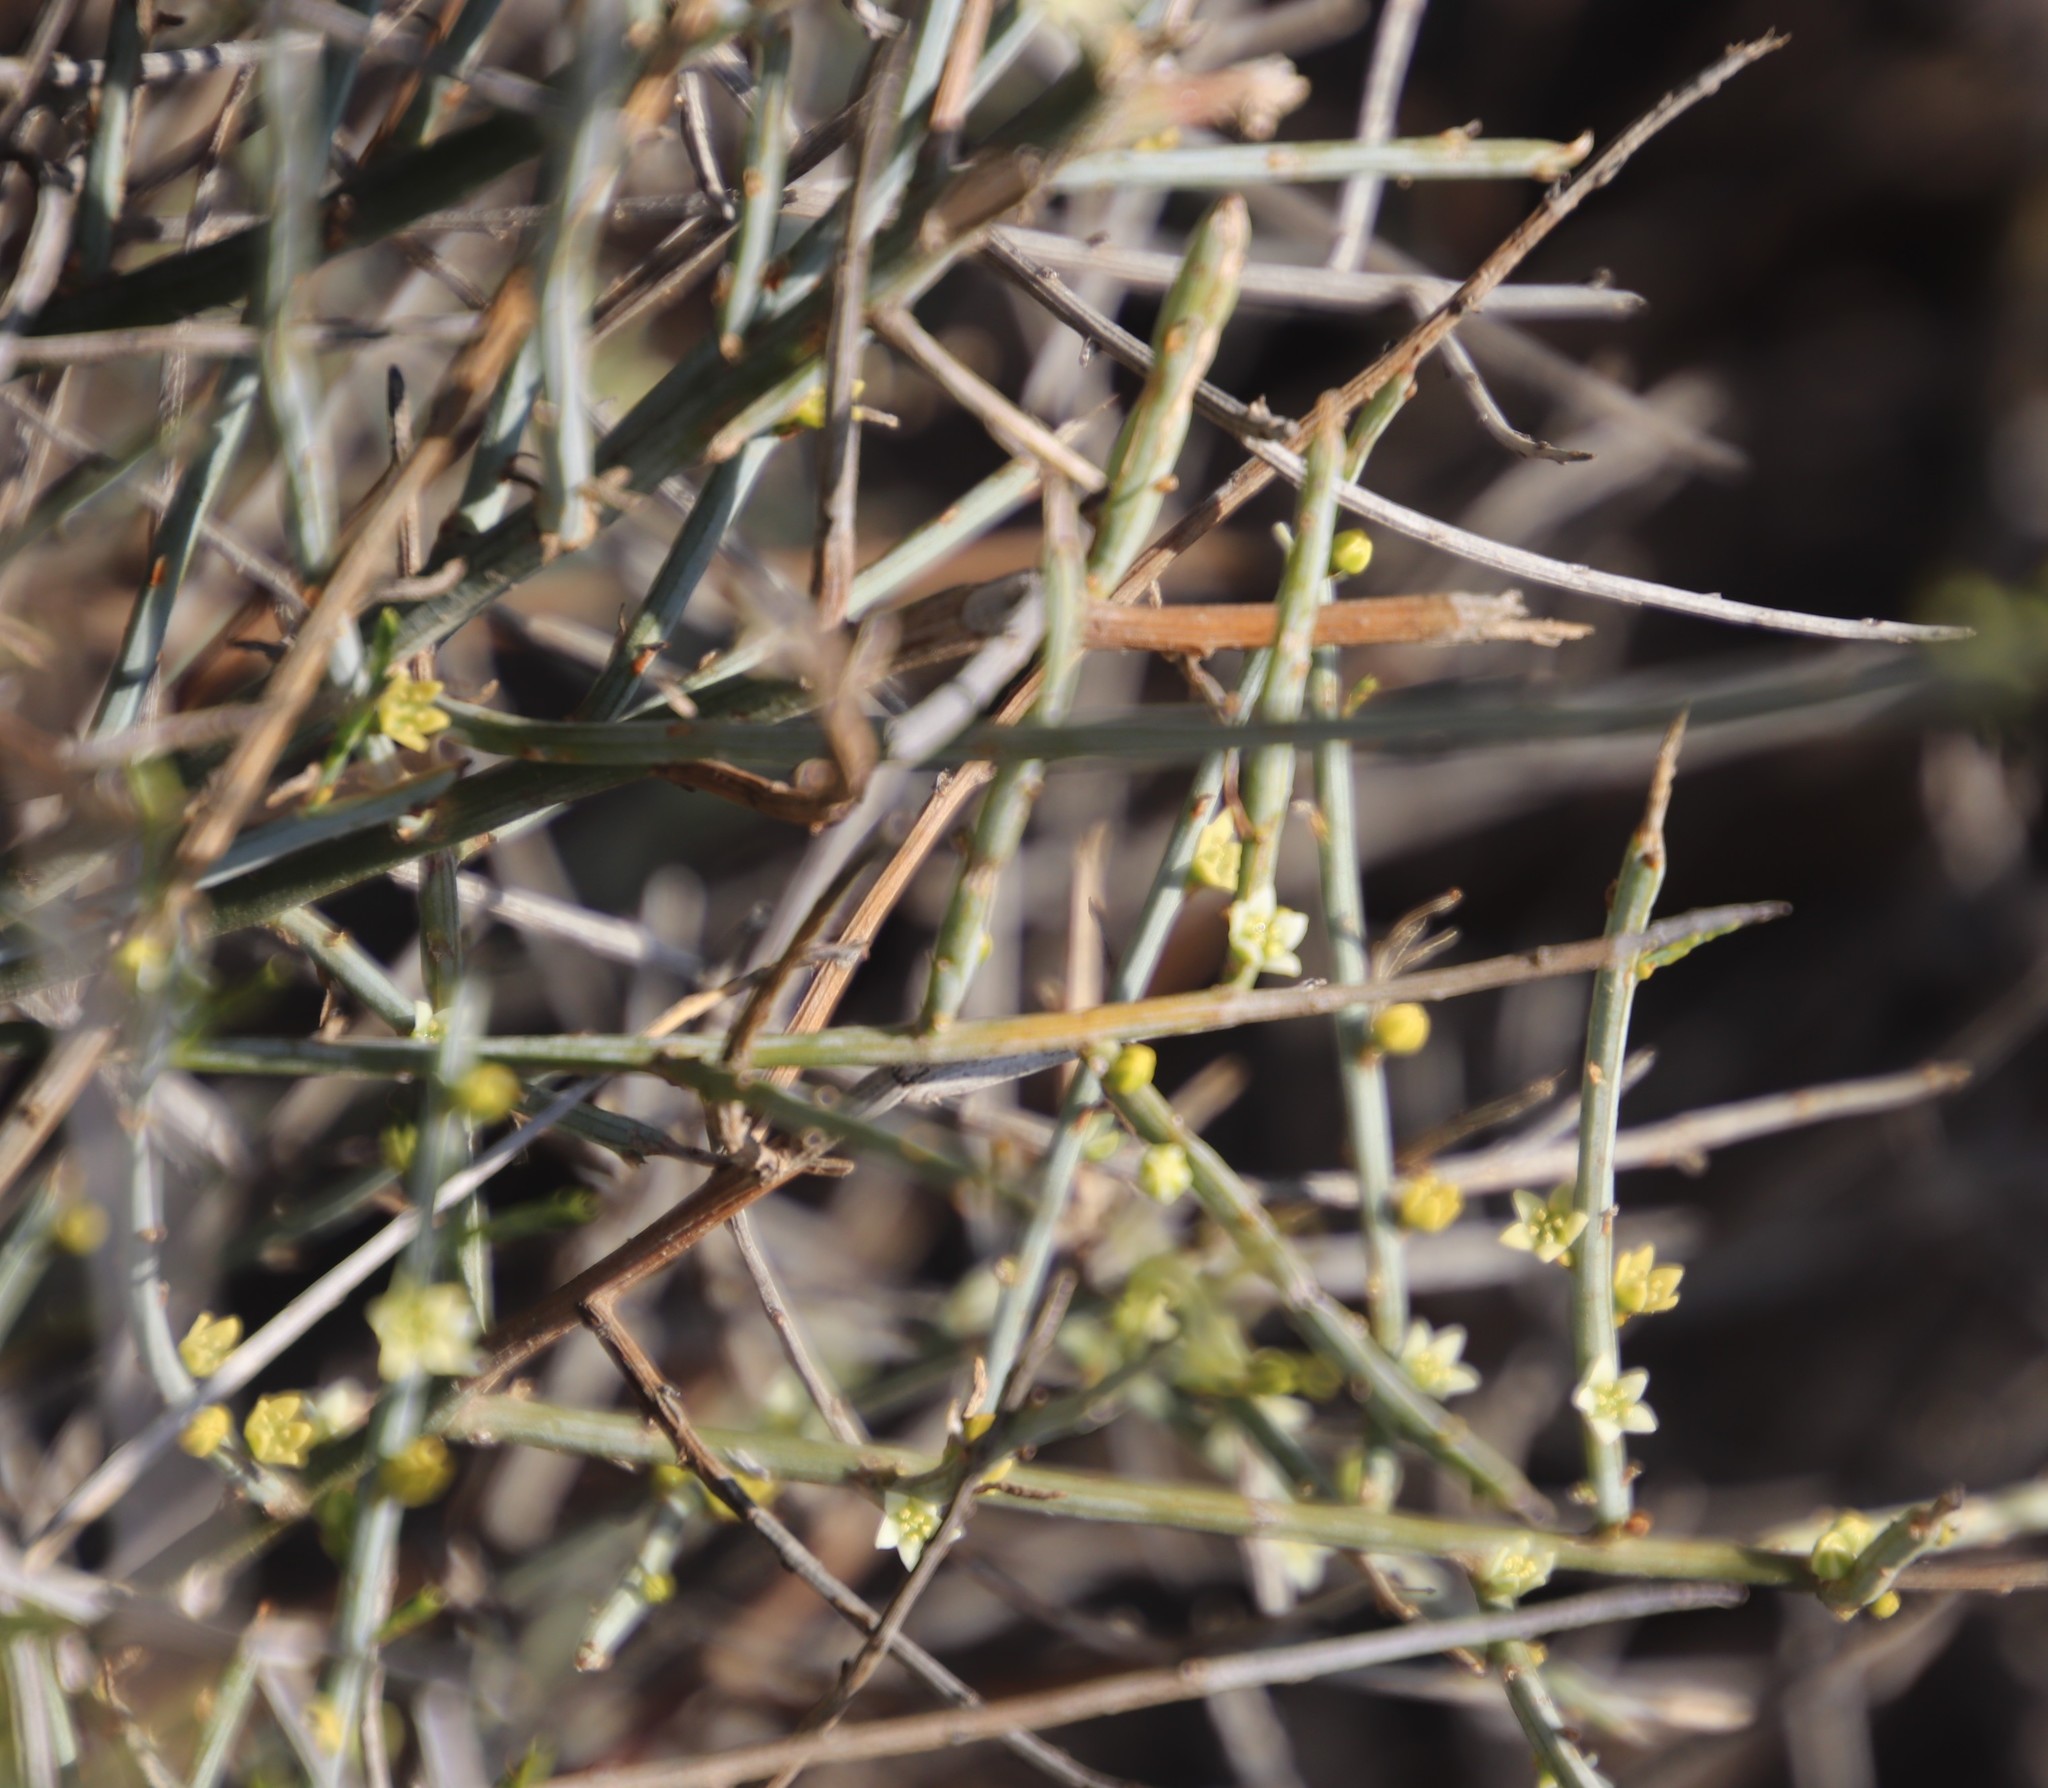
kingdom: Plantae
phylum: Tracheophyta
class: Magnoliopsida
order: Santalales
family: Thesiaceae
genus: Lacomucinaea
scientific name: Lacomucinaea lineata
